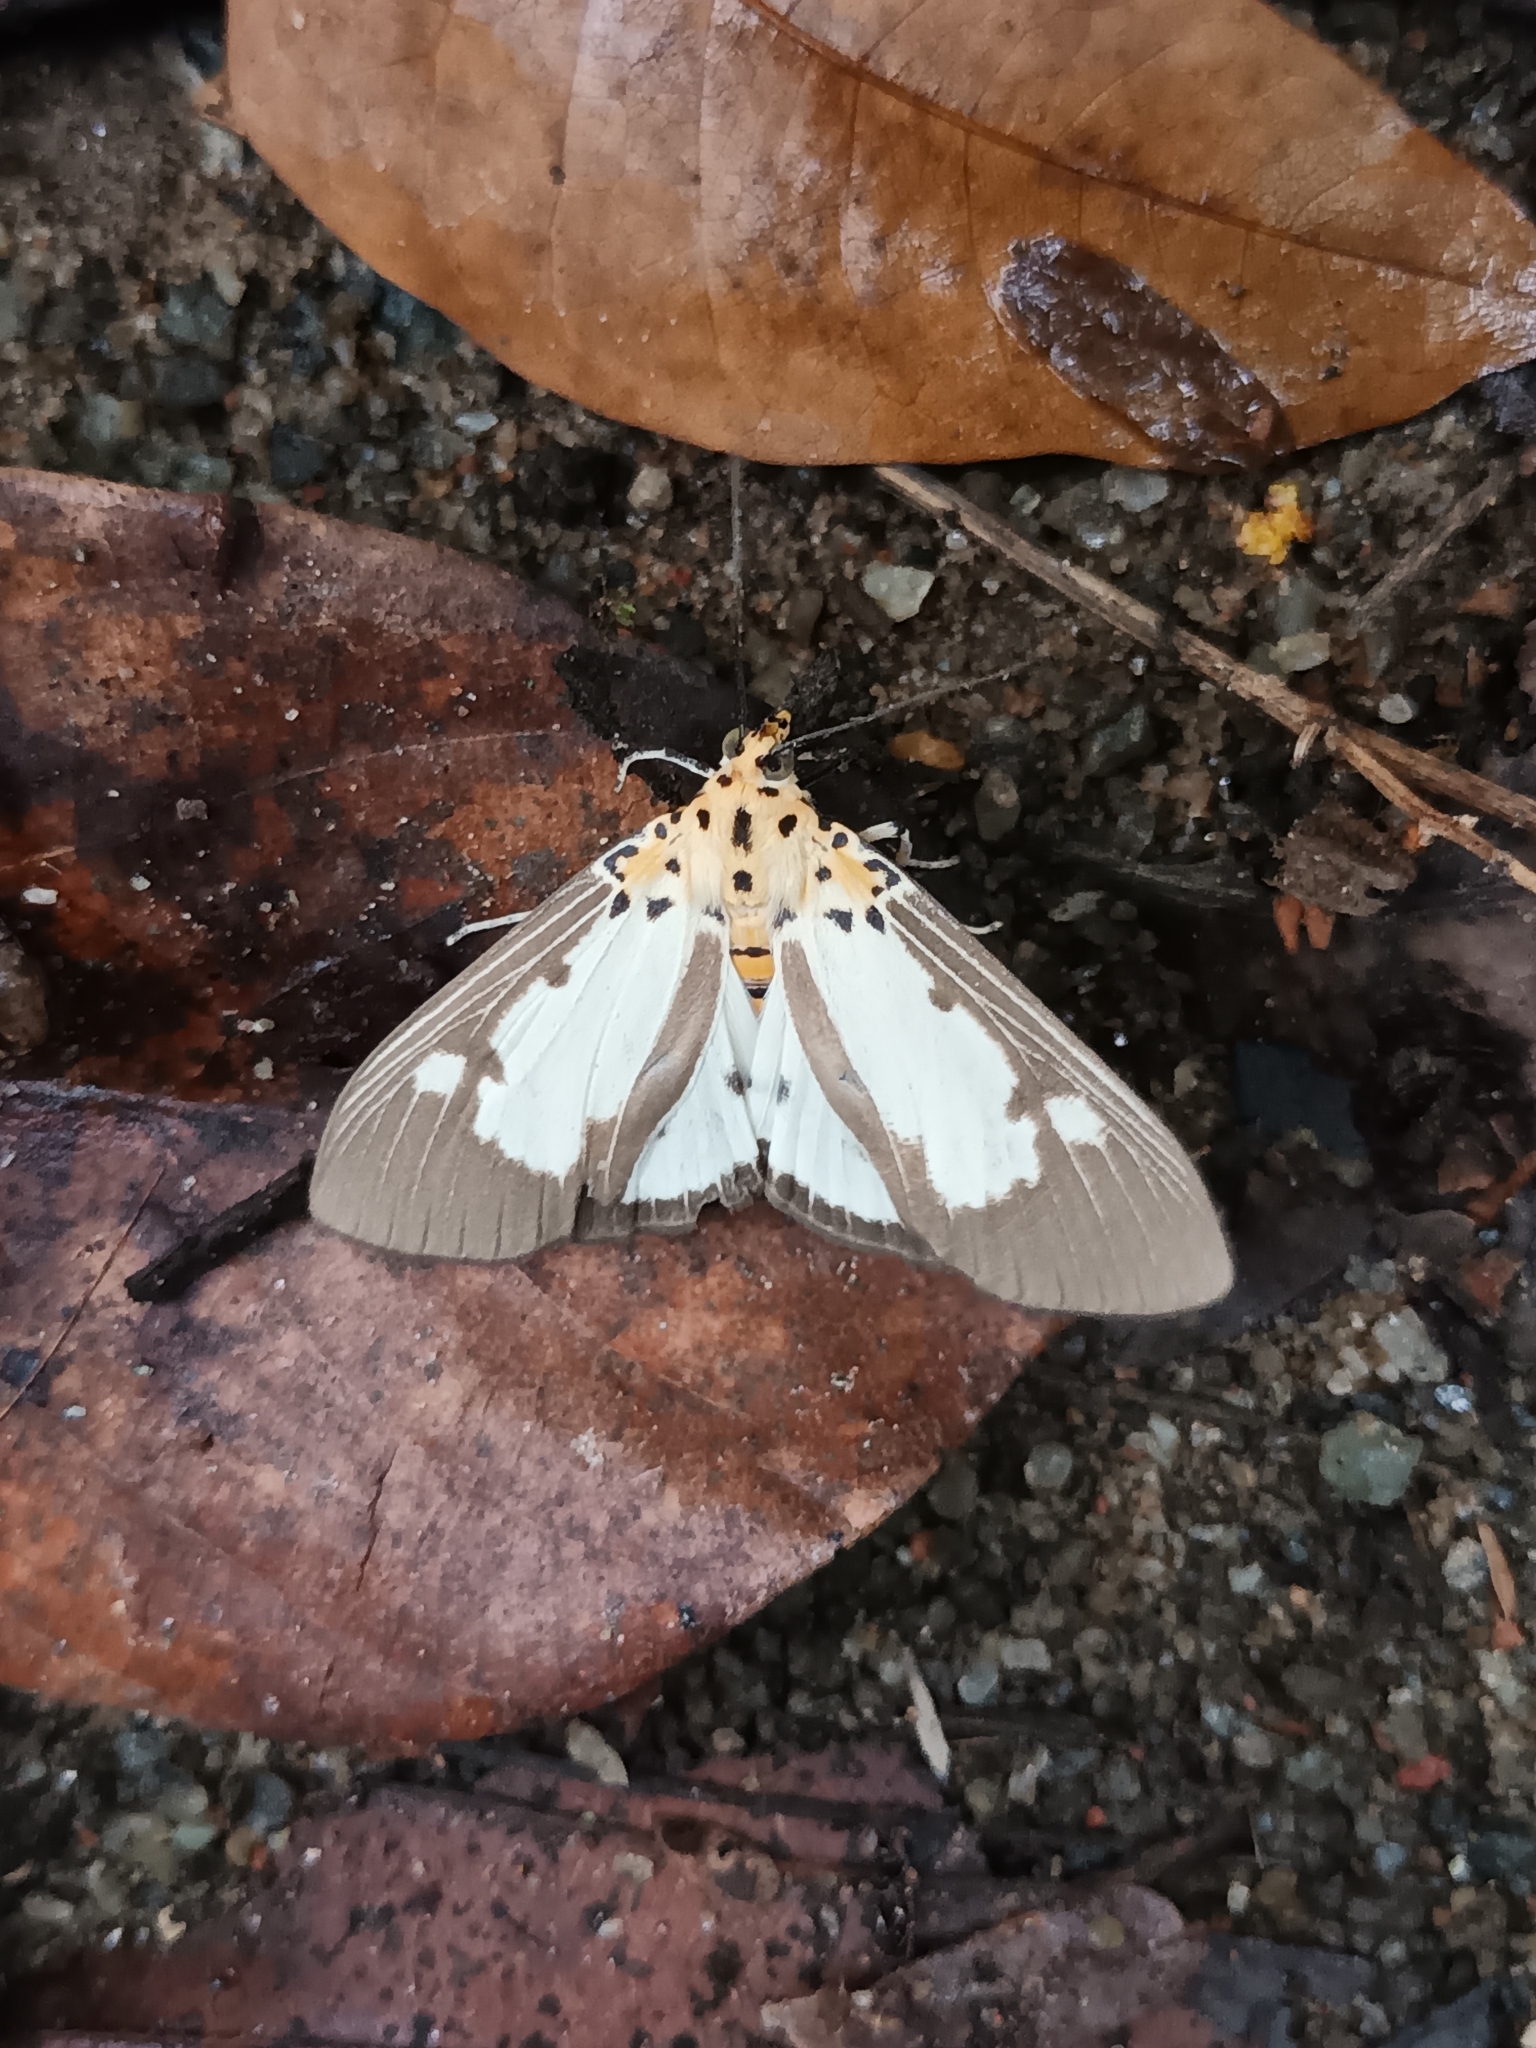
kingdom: Animalia
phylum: Arthropoda
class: Insecta
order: Lepidoptera
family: Erebidae
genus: Asota
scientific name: Asota plana
